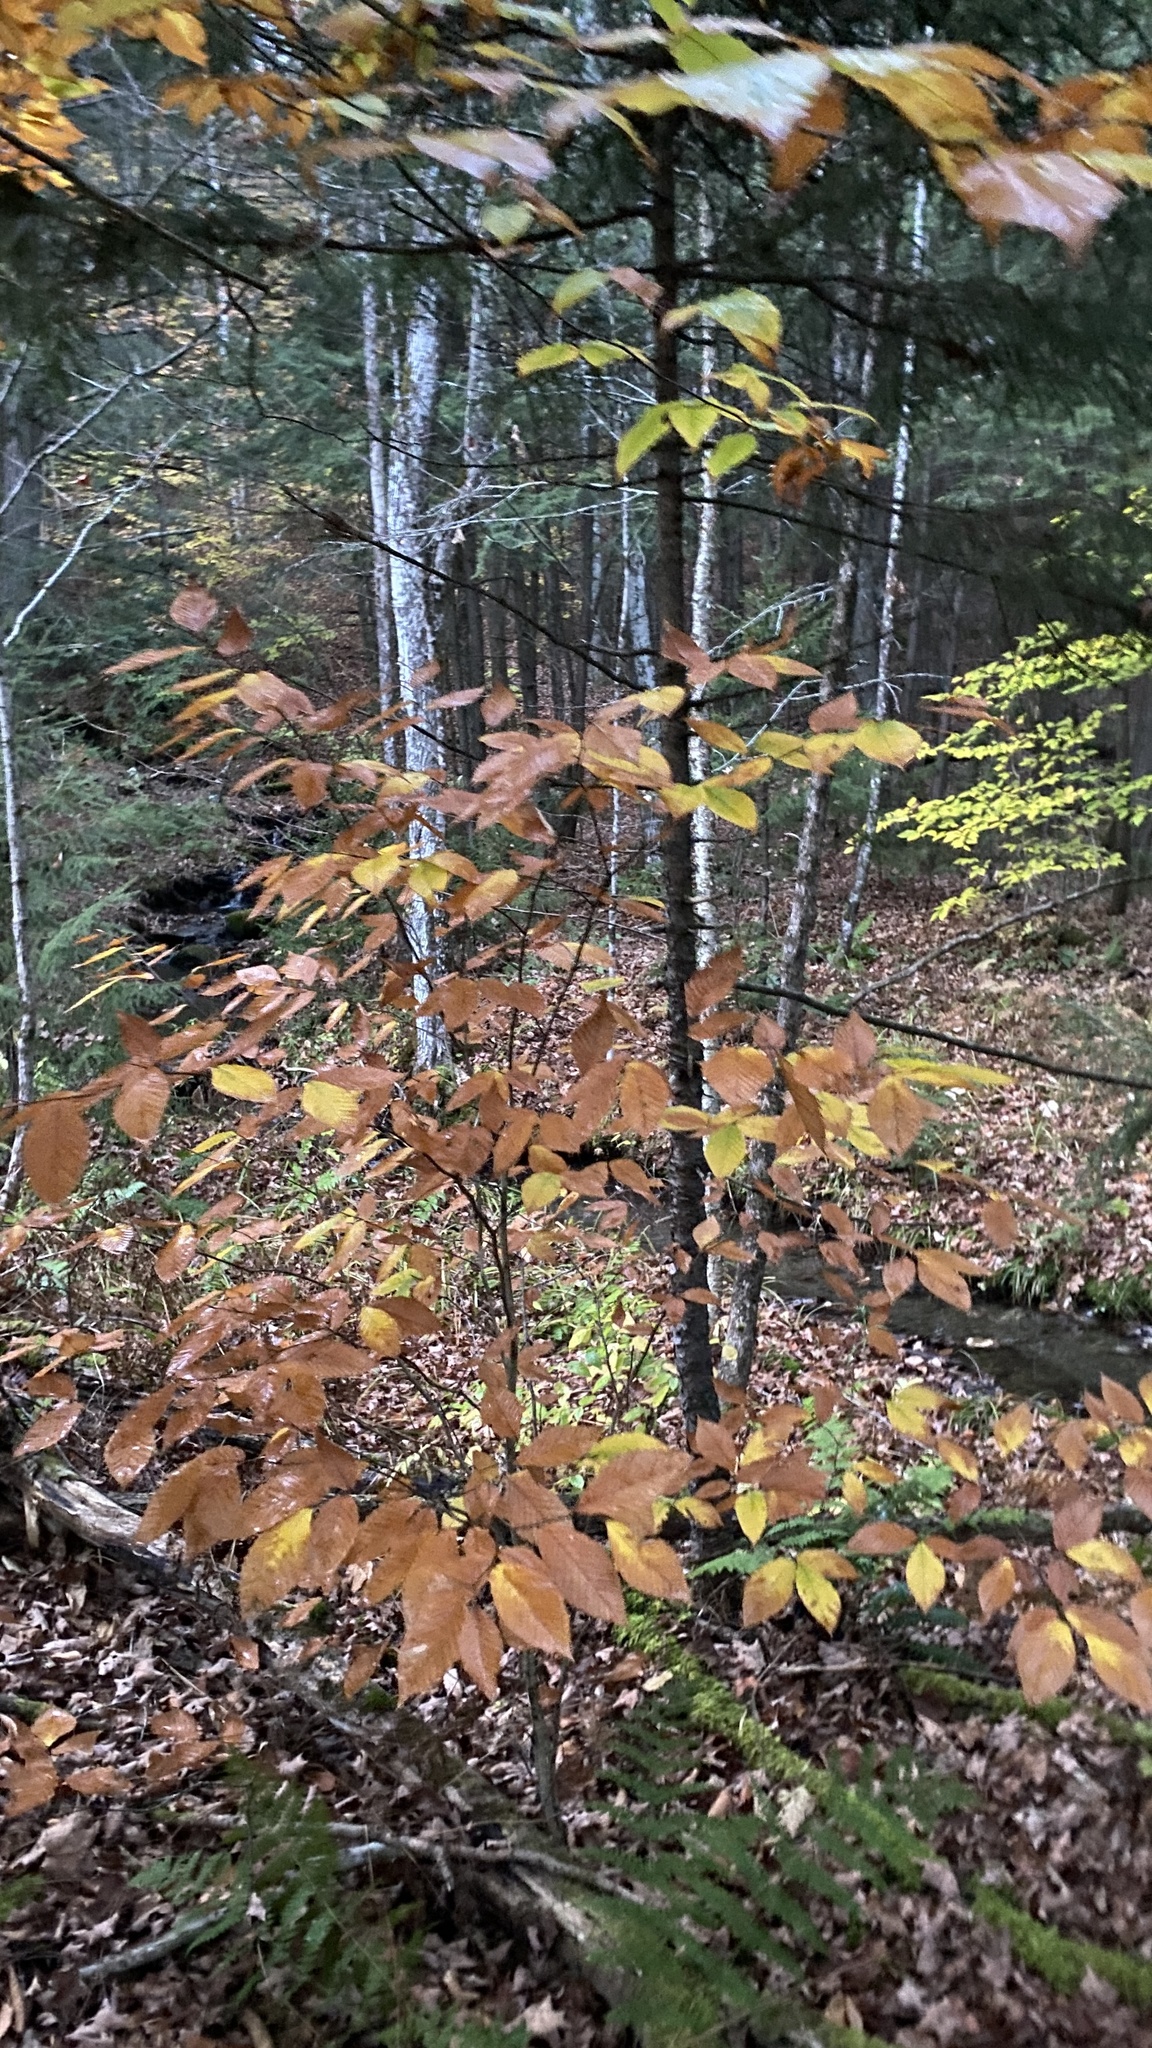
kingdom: Plantae
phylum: Tracheophyta
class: Magnoliopsida
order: Fagales
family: Fagaceae
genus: Fagus
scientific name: Fagus grandifolia
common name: American beech
